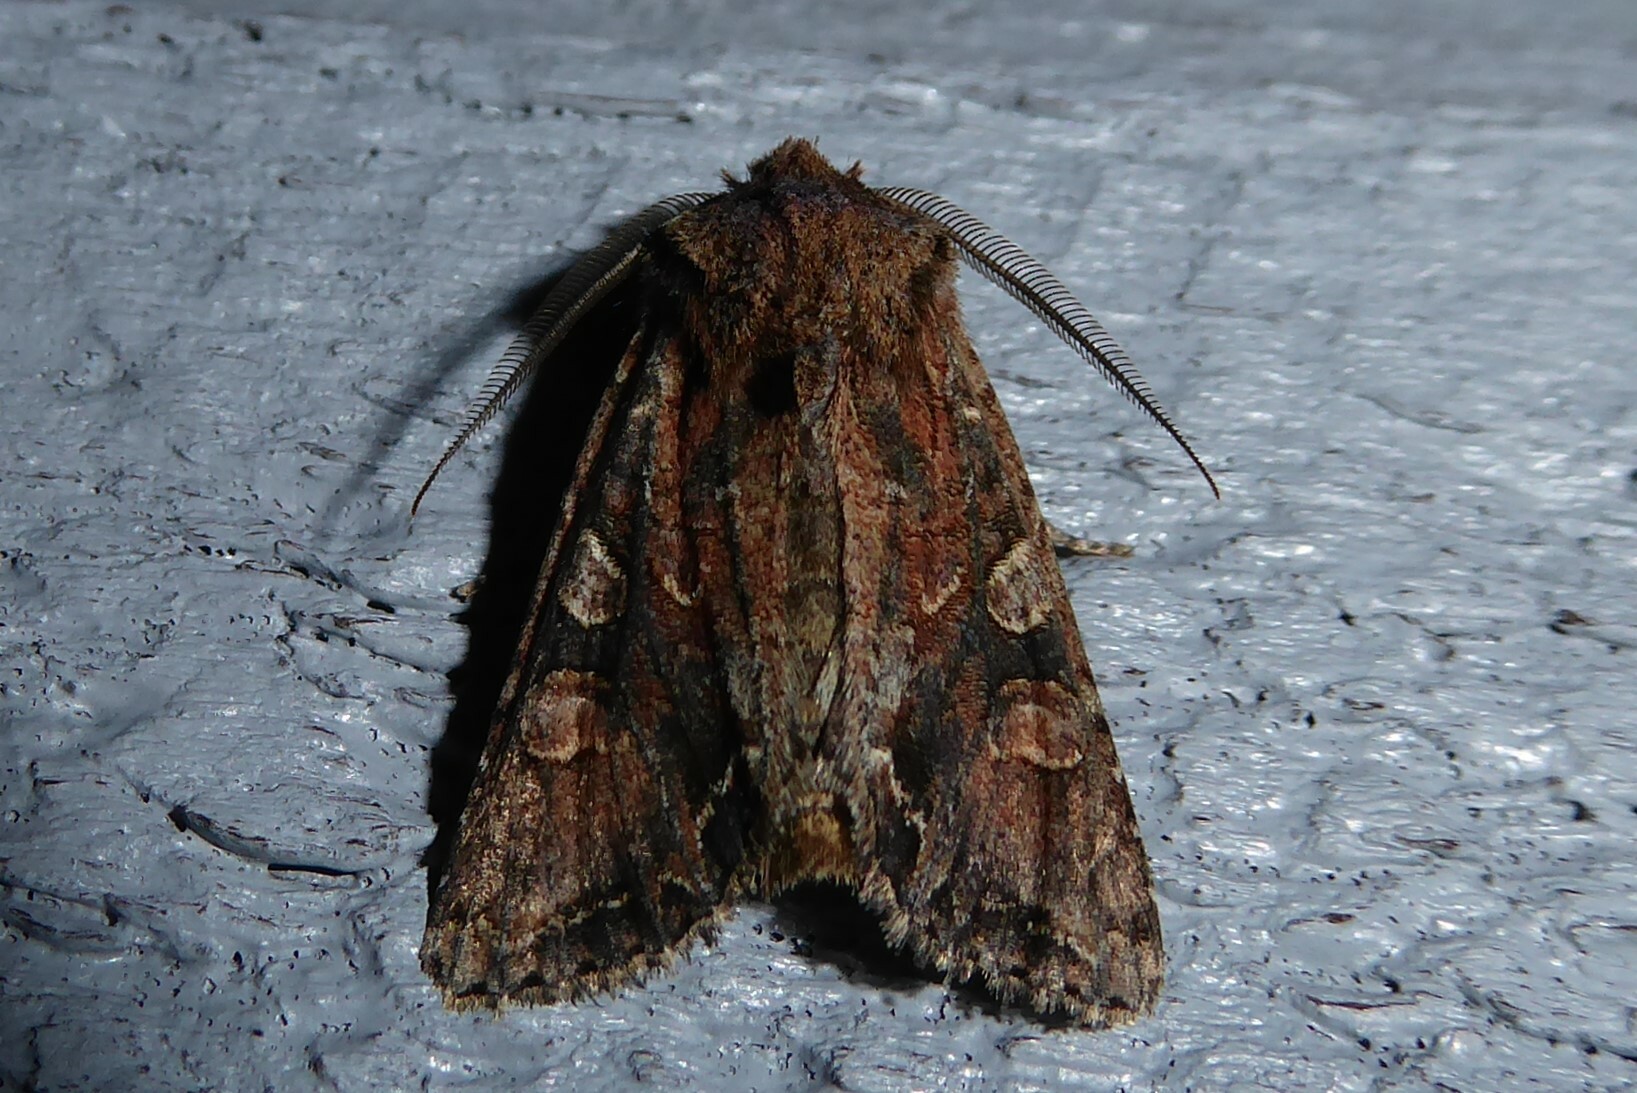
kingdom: Animalia
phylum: Arthropoda
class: Insecta
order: Lepidoptera
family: Noctuidae
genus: Ichneutica
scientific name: Ichneutica skelloni
